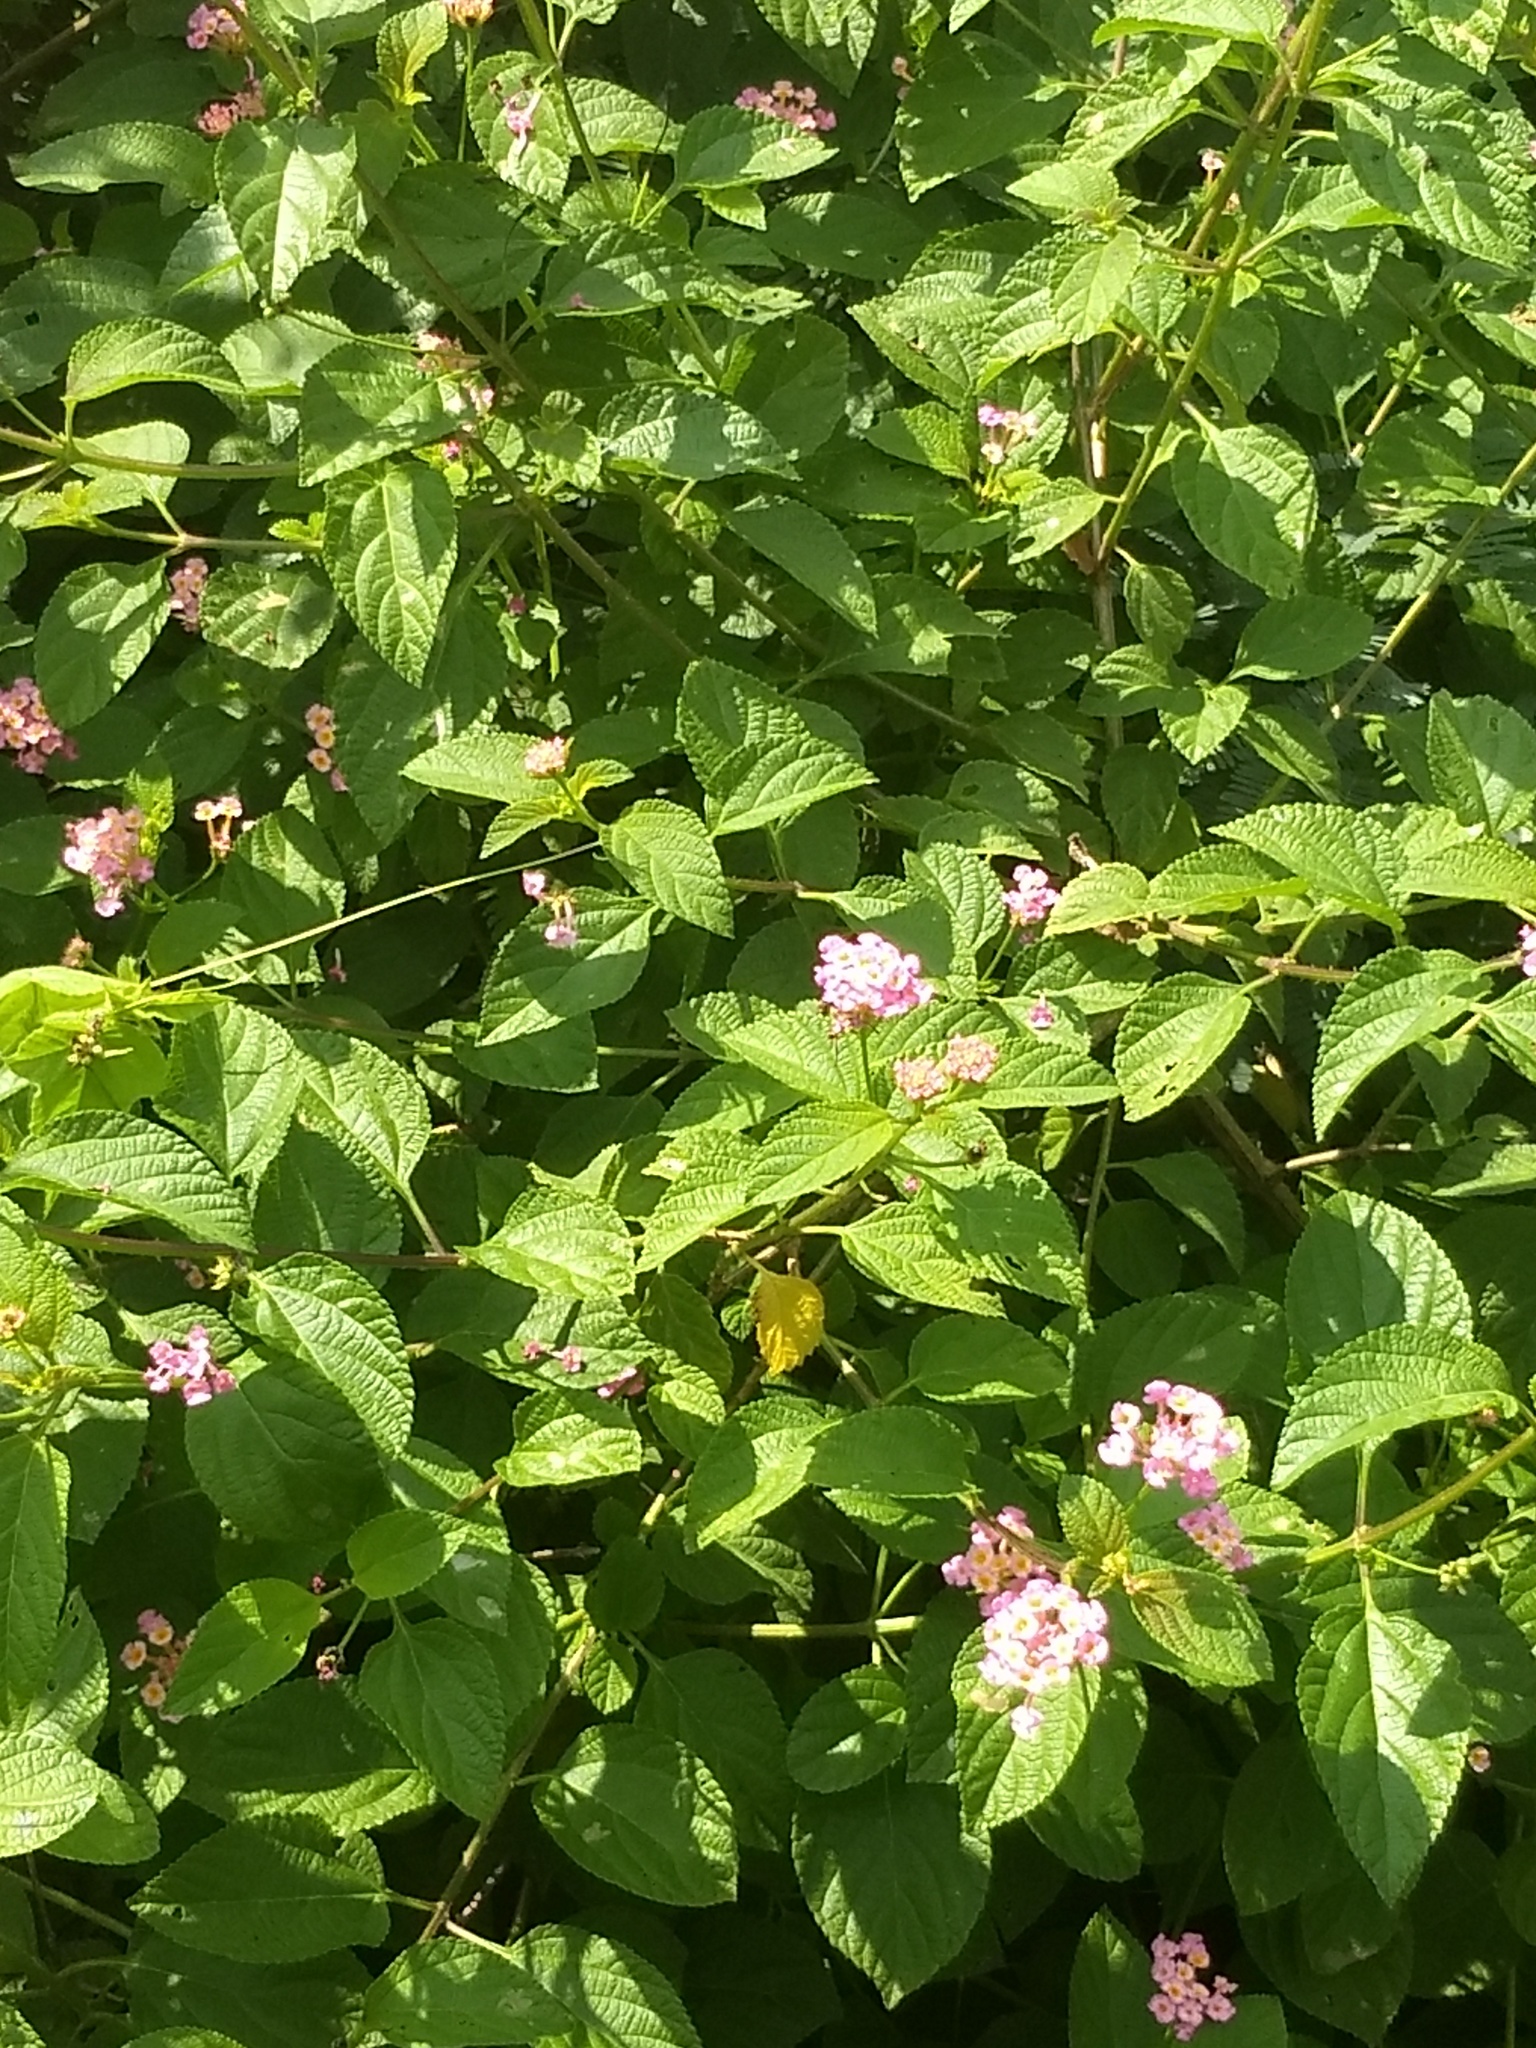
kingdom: Plantae
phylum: Tracheophyta
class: Magnoliopsida
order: Lamiales
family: Verbenaceae
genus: Lantana
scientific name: Lantana camara
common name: Lantana
